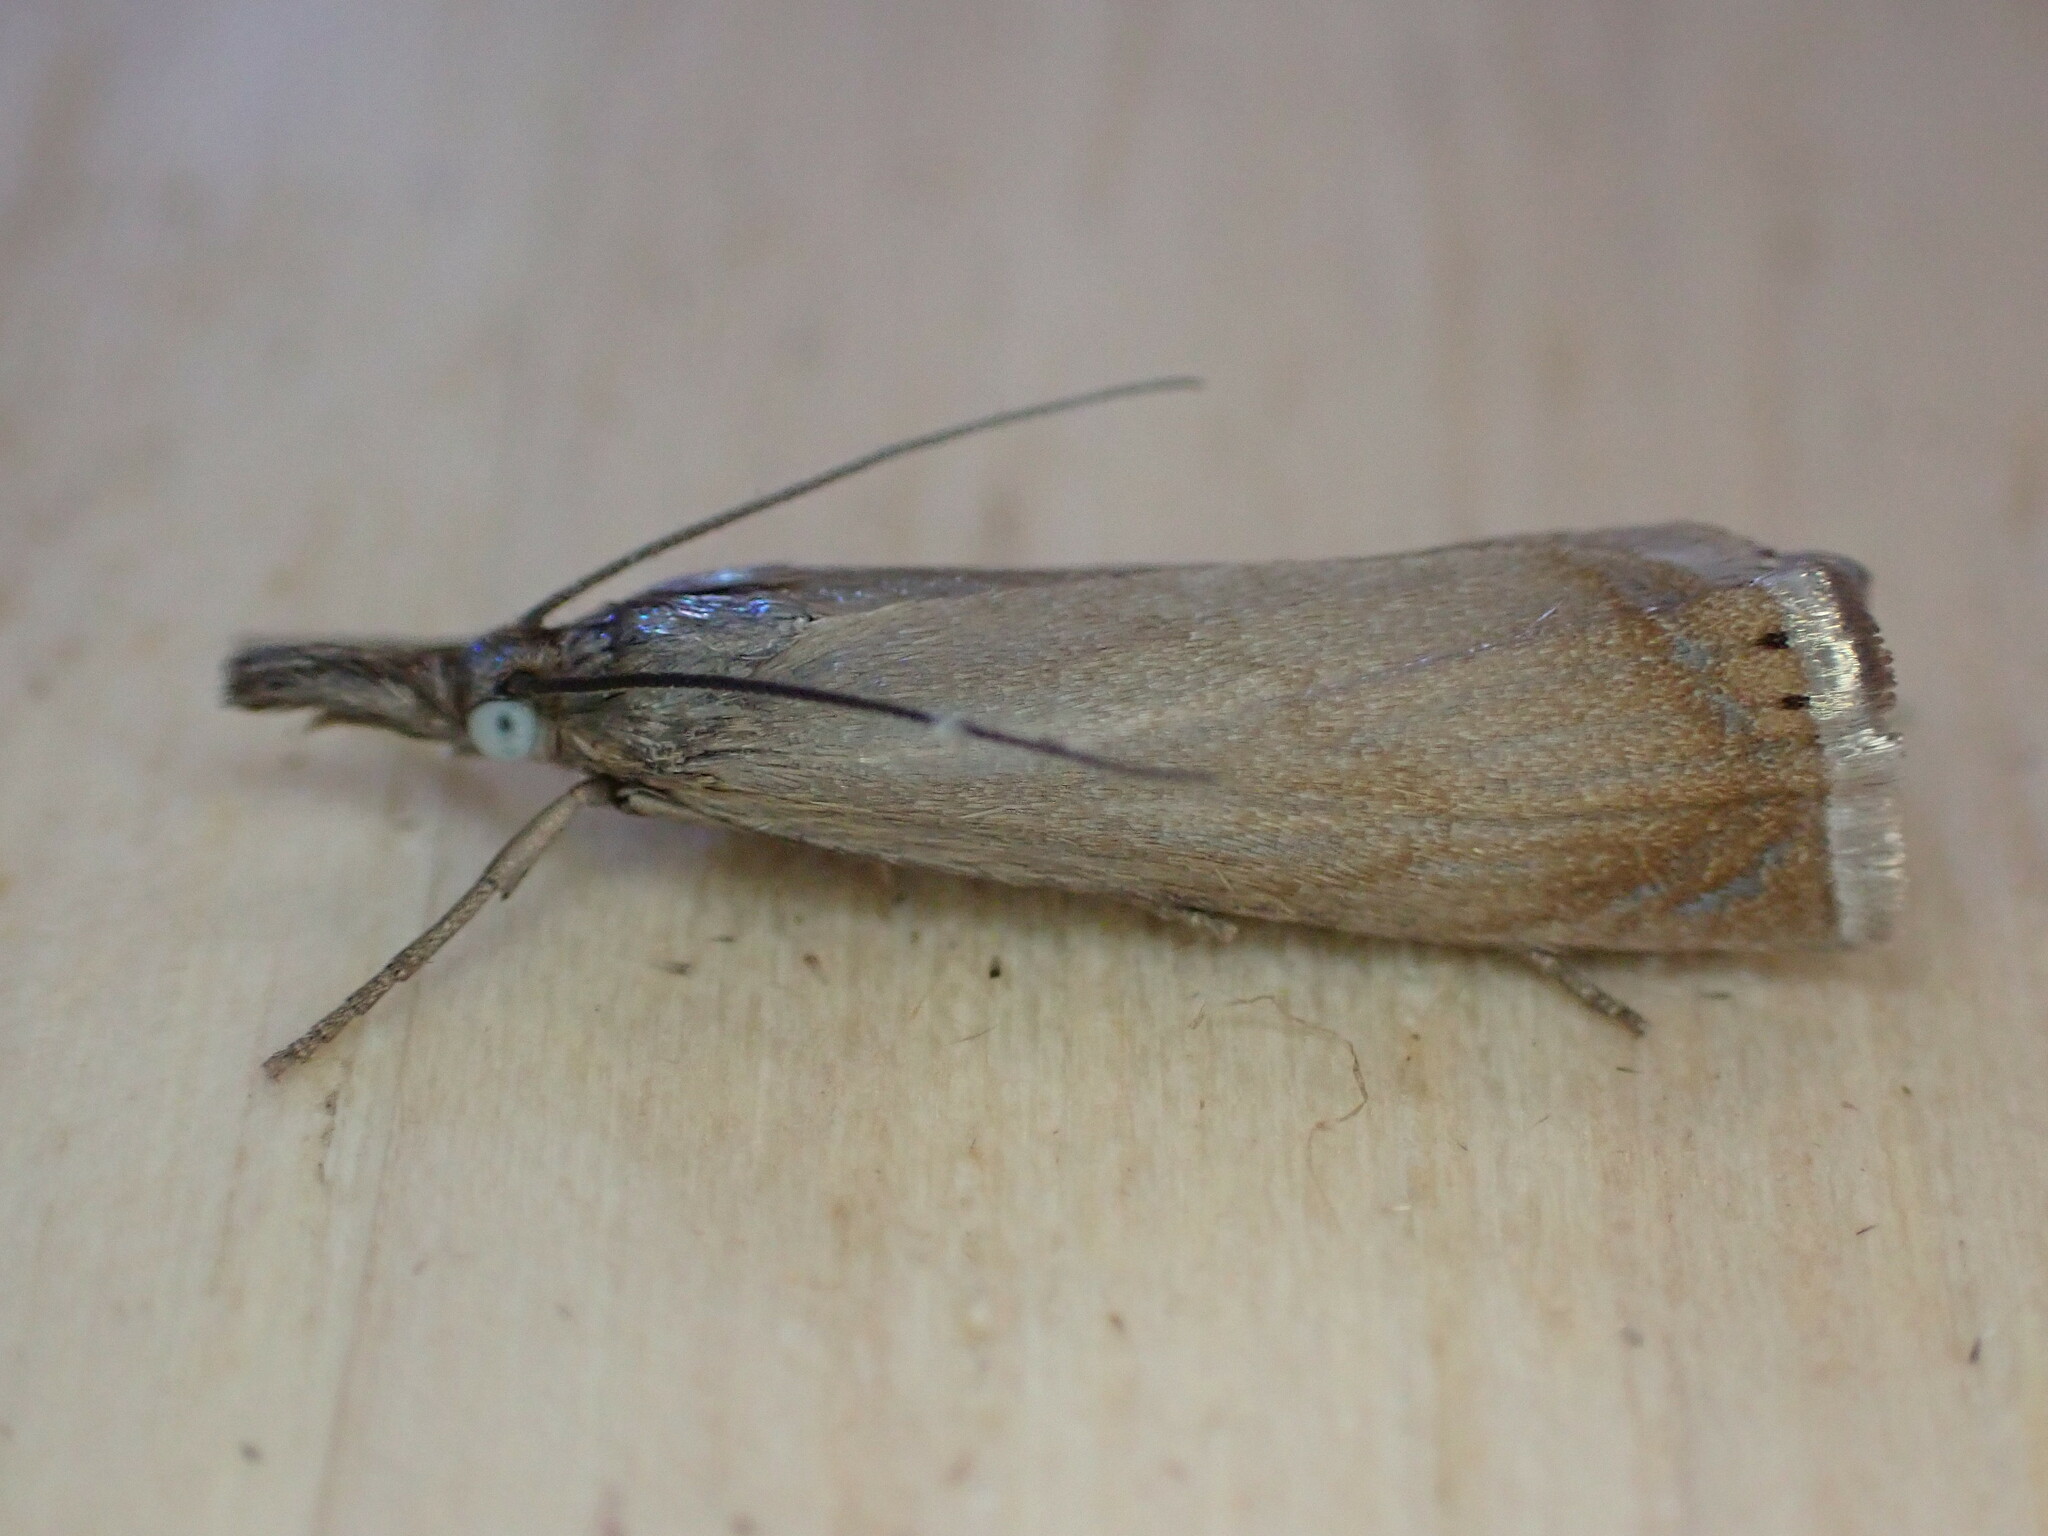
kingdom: Animalia
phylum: Arthropoda
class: Insecta
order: Lepidoptera
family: Crambidae
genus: Chrysoteuchia
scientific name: Chrysoteuchia culmella
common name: Garden grass-veneer
